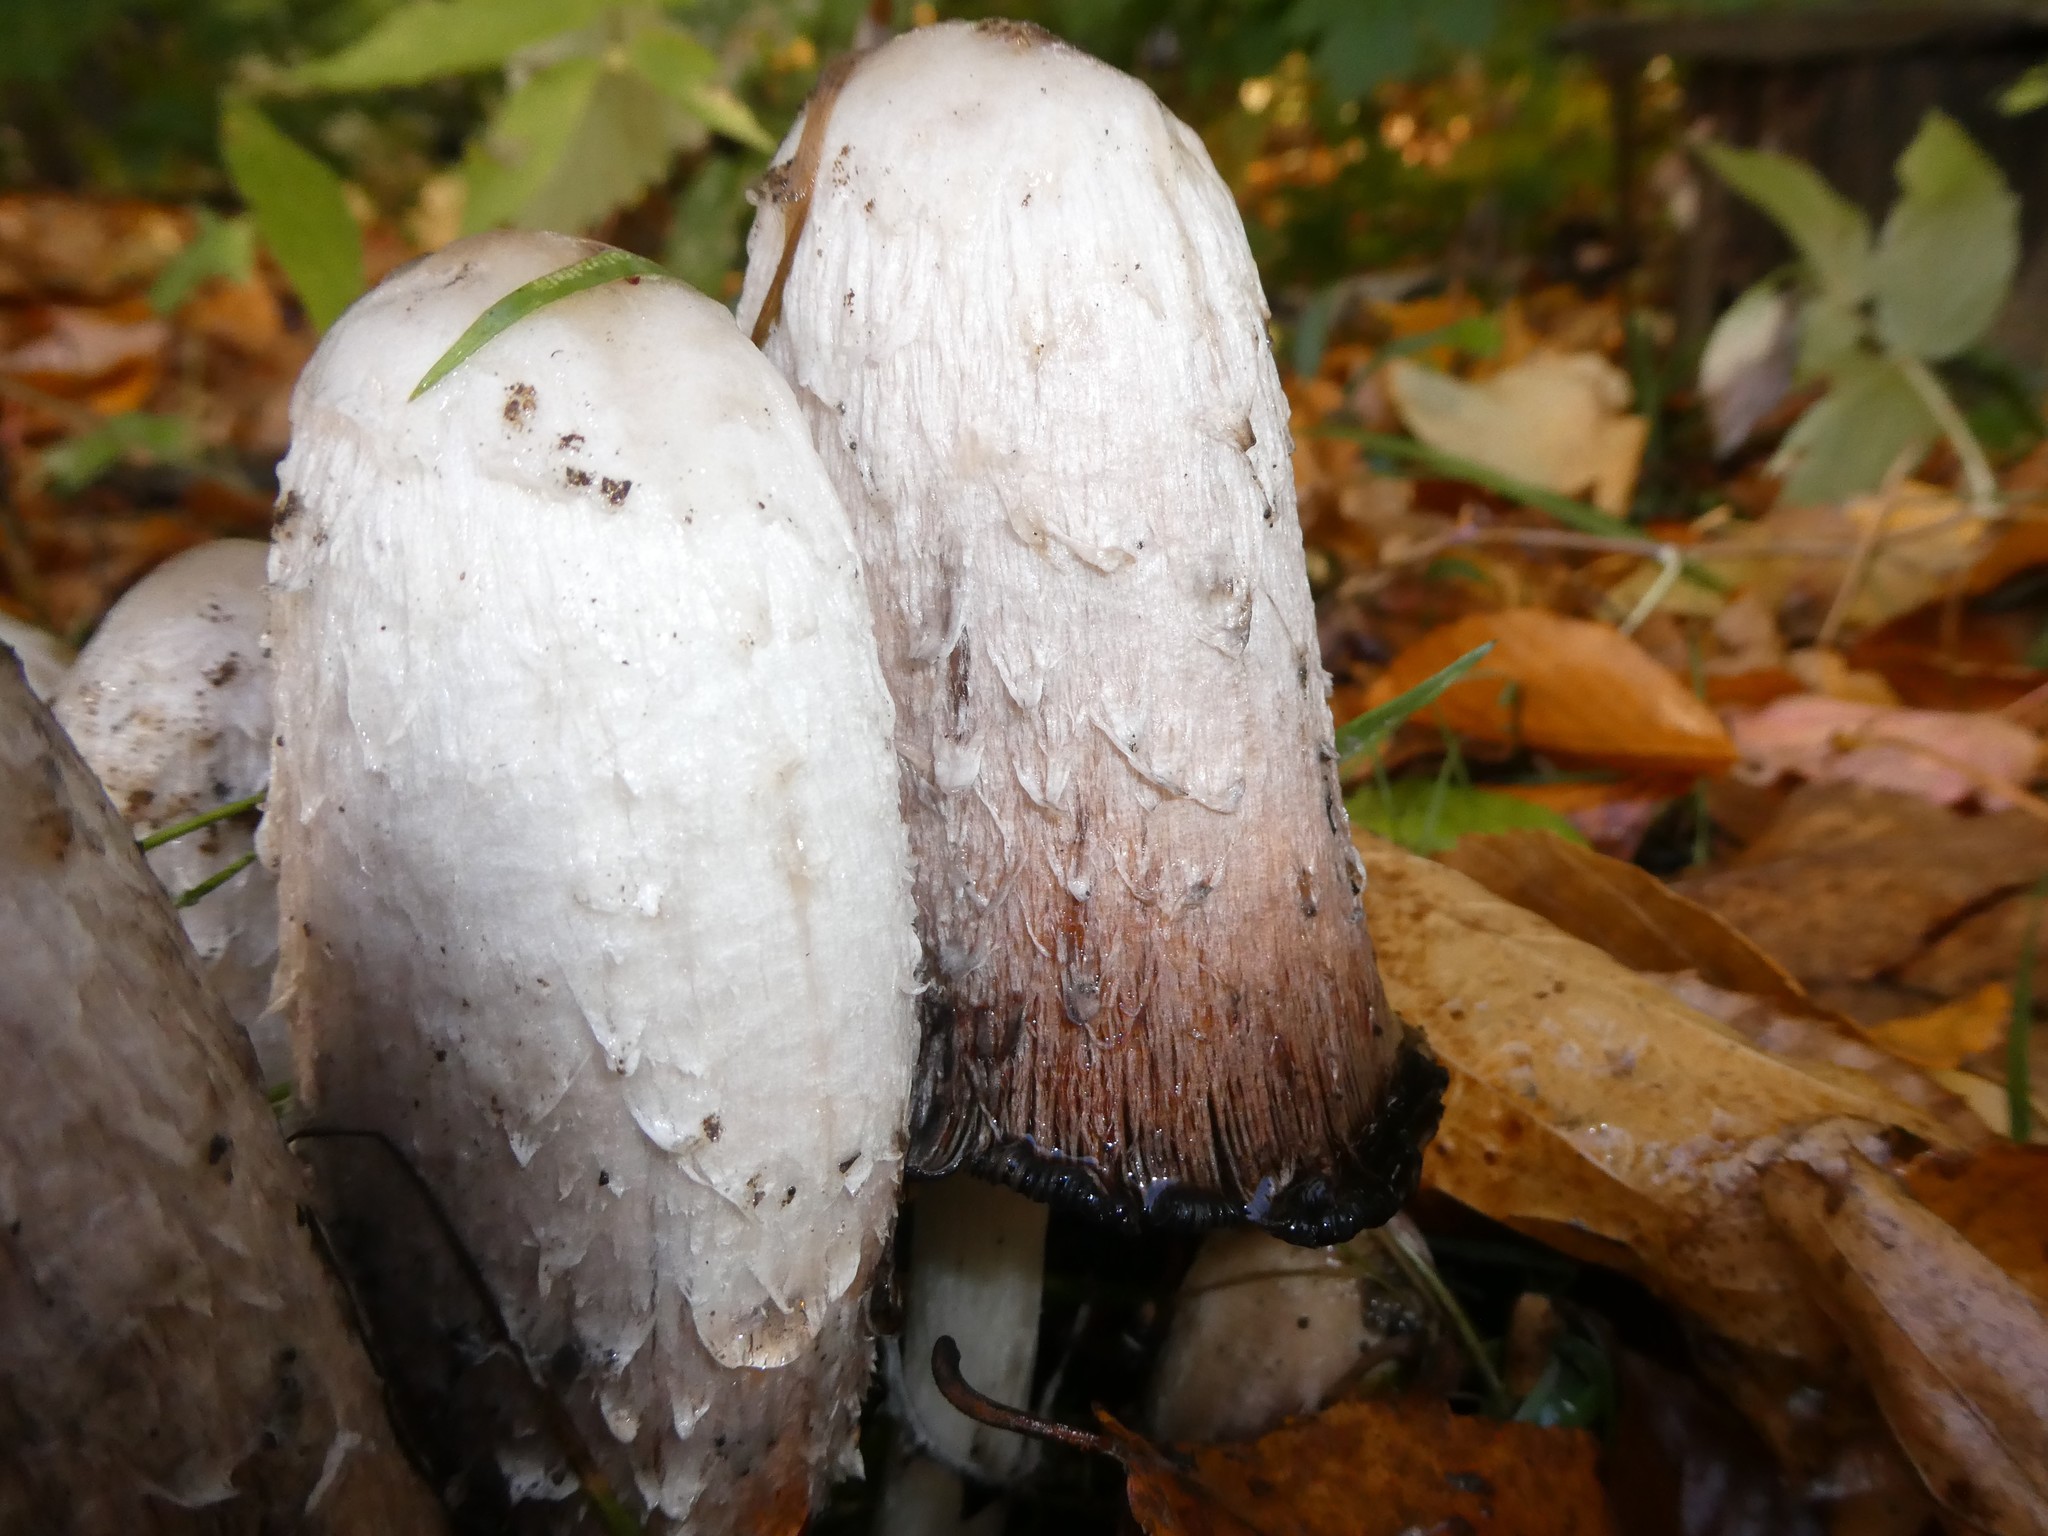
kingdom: Fungi
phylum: Basidiomycota
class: Agaricomycetes
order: Agaricales
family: Agaricaceae
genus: Coprinus
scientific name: Coprinus comatus
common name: Lawyer's wig
